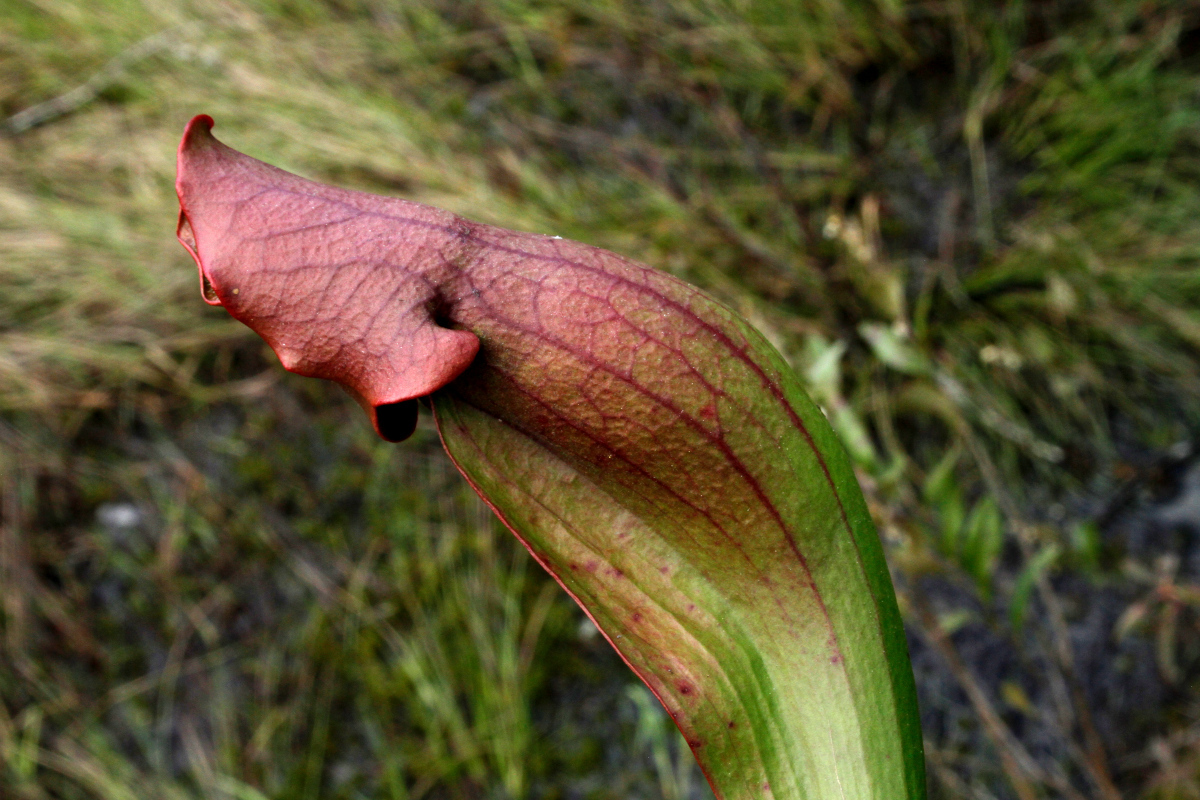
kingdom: Plantae
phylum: Tracheophyta
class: Magnoliopsida
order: Ericales
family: Sarraceniaceae
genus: Sarracenia
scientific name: Sarracenia purpurea
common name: Pitcherplant
